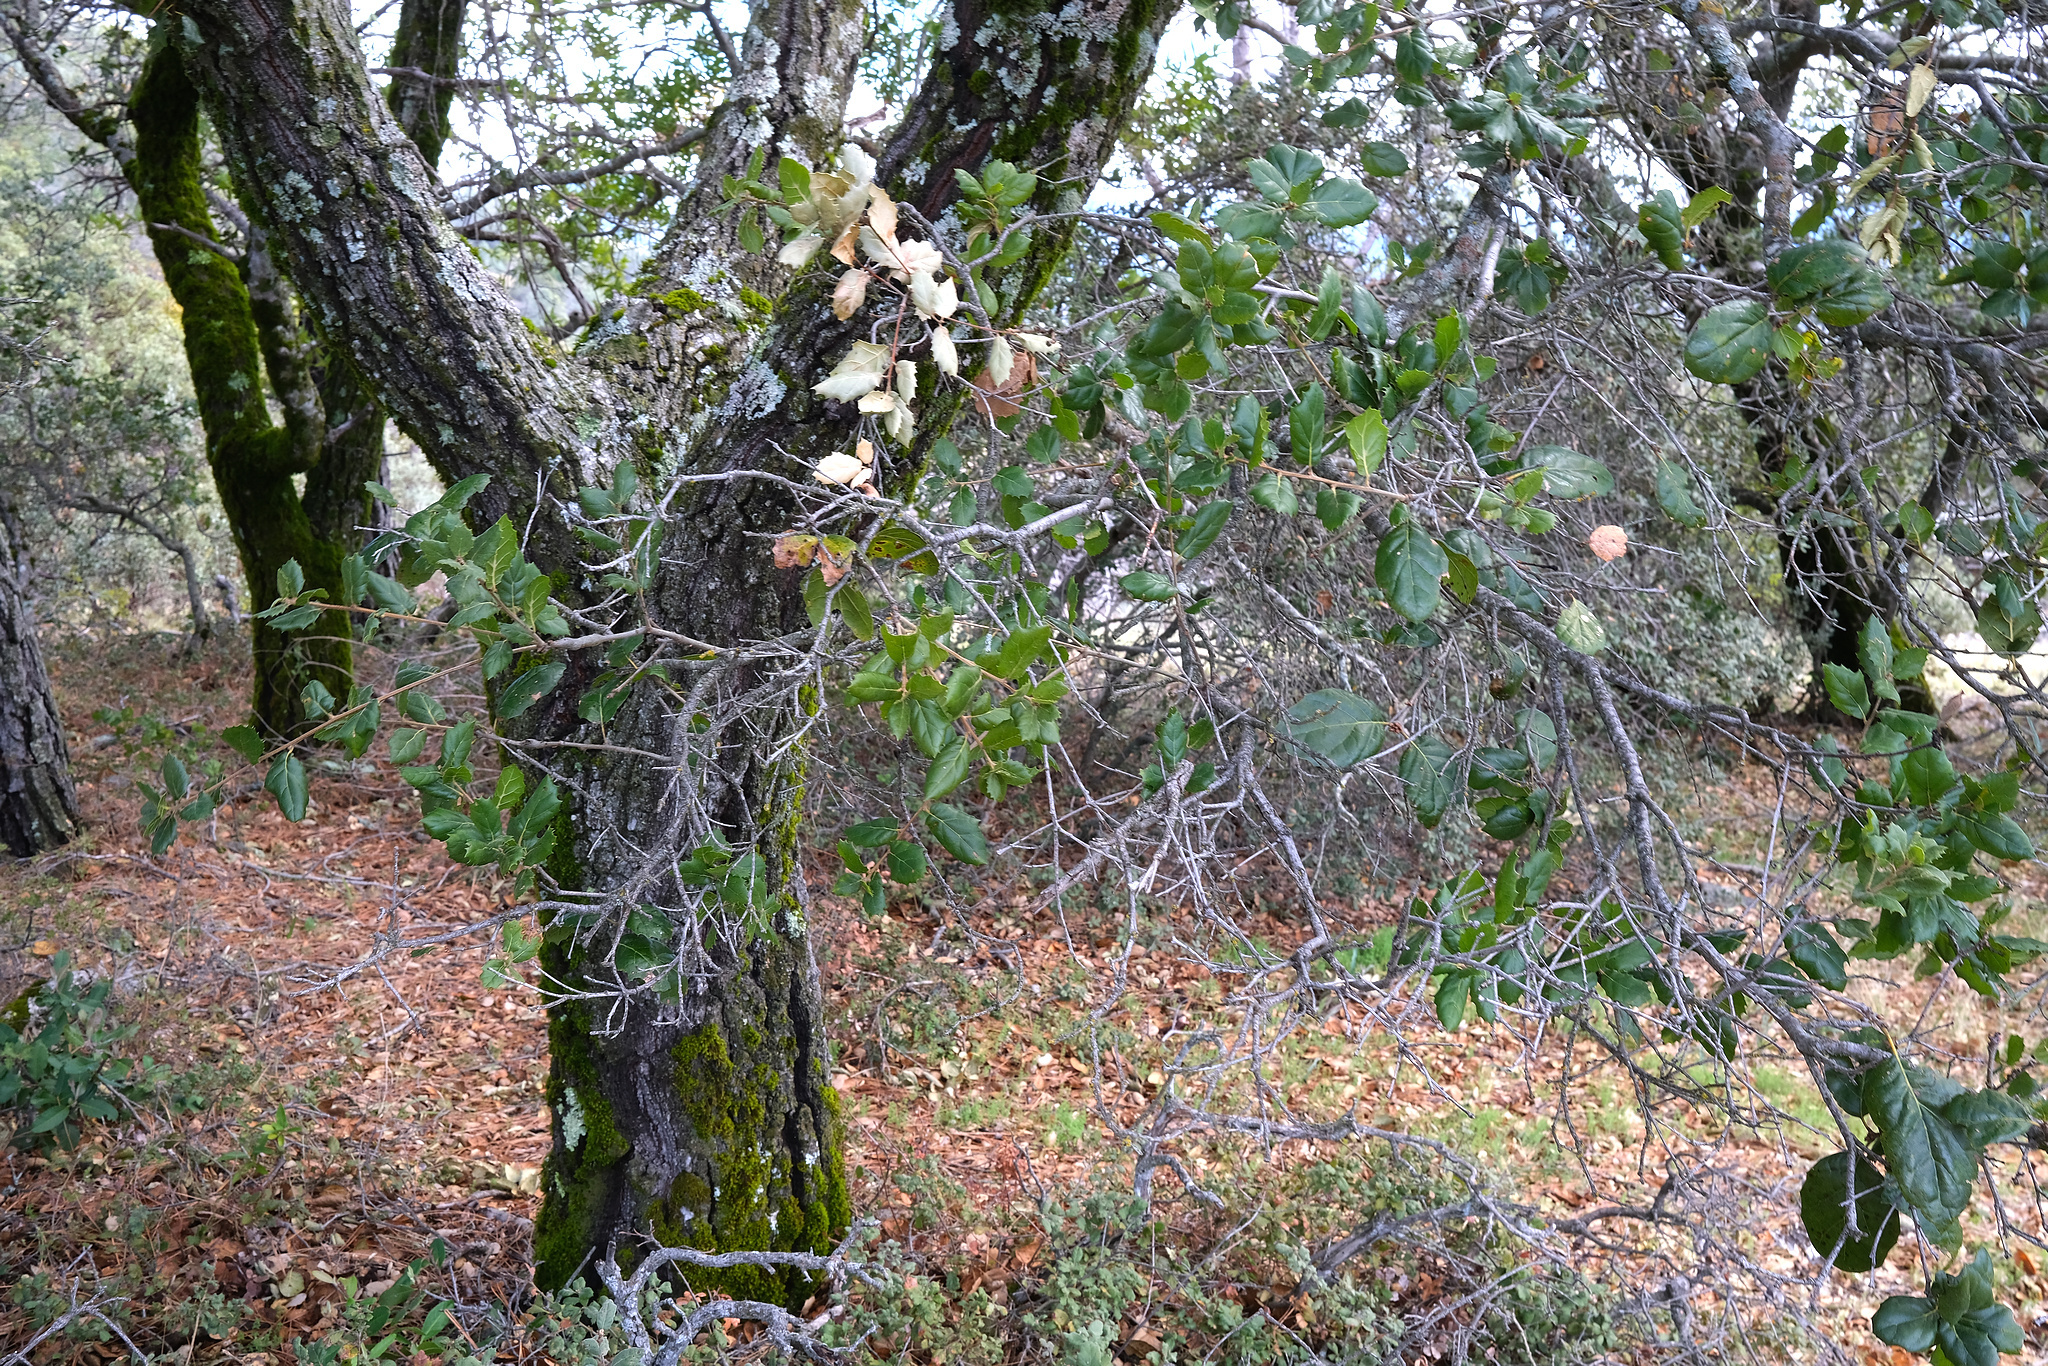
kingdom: Plantae
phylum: Tracheophyta
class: Magnoliopsida
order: Fagales
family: Fagaceae
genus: Quercus
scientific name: Quercus agrifolia
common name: California live oak
